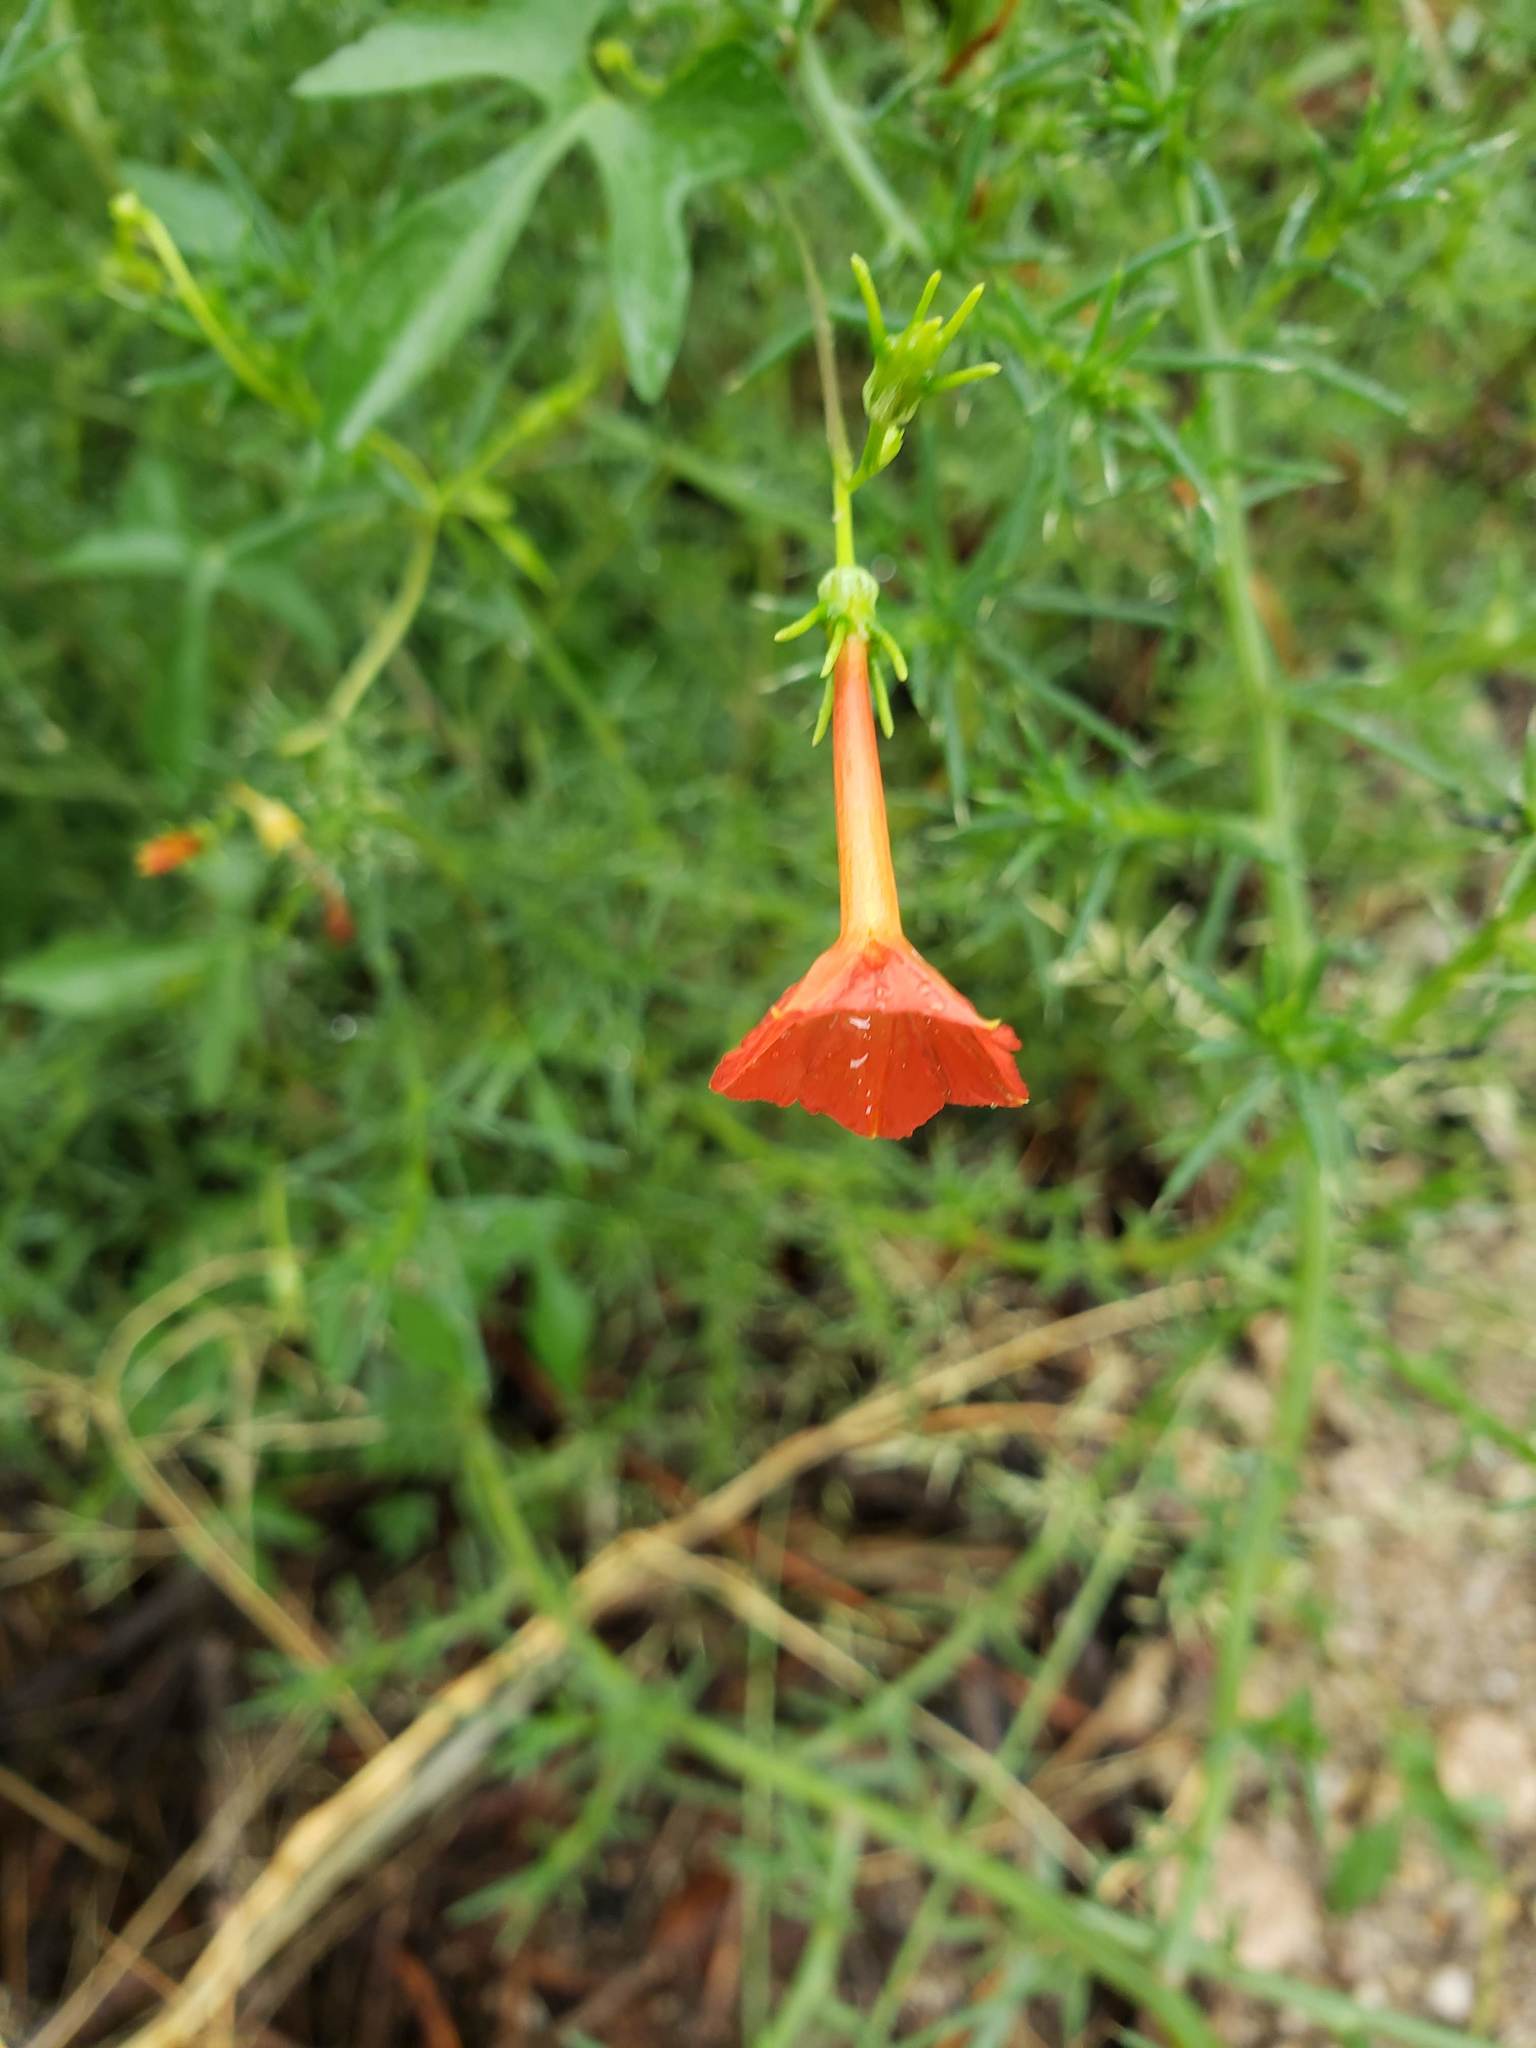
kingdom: Plantae
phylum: Tracheophyta
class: Magnoliopsida
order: Solanales
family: Convolvulaceae
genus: Ipomoea
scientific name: Ipomoea cristulata
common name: Trans-pecos morning-glory
